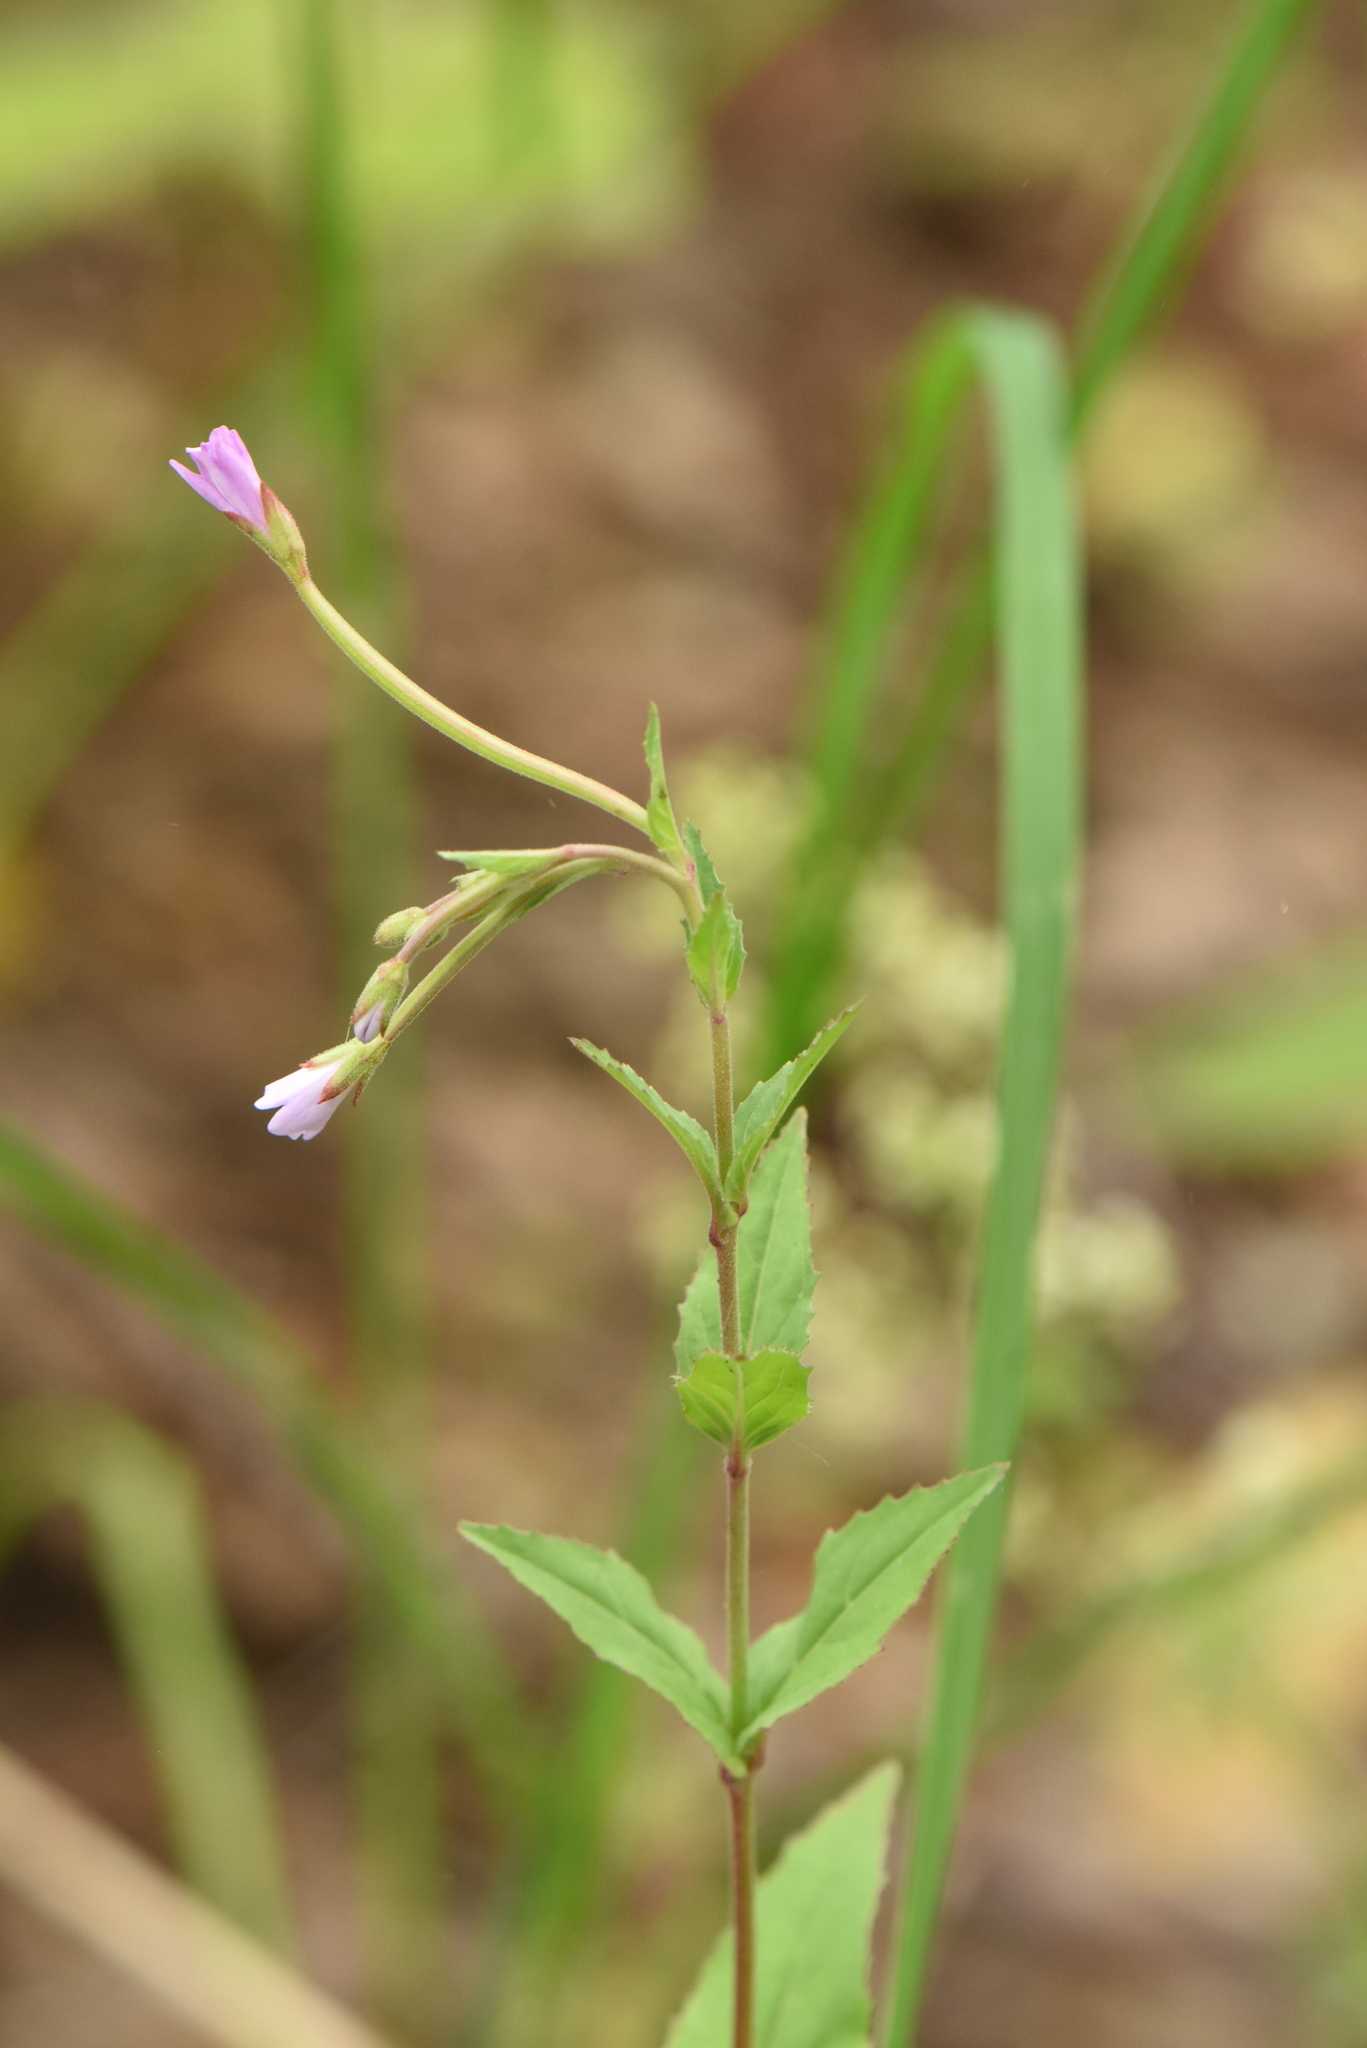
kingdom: Plantae
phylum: Tracheophyta
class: Magnoliopsida
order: Myrtales
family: Onagraceae
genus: Epilobium
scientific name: Epilobium montanum
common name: Broad-leaved willowherb
